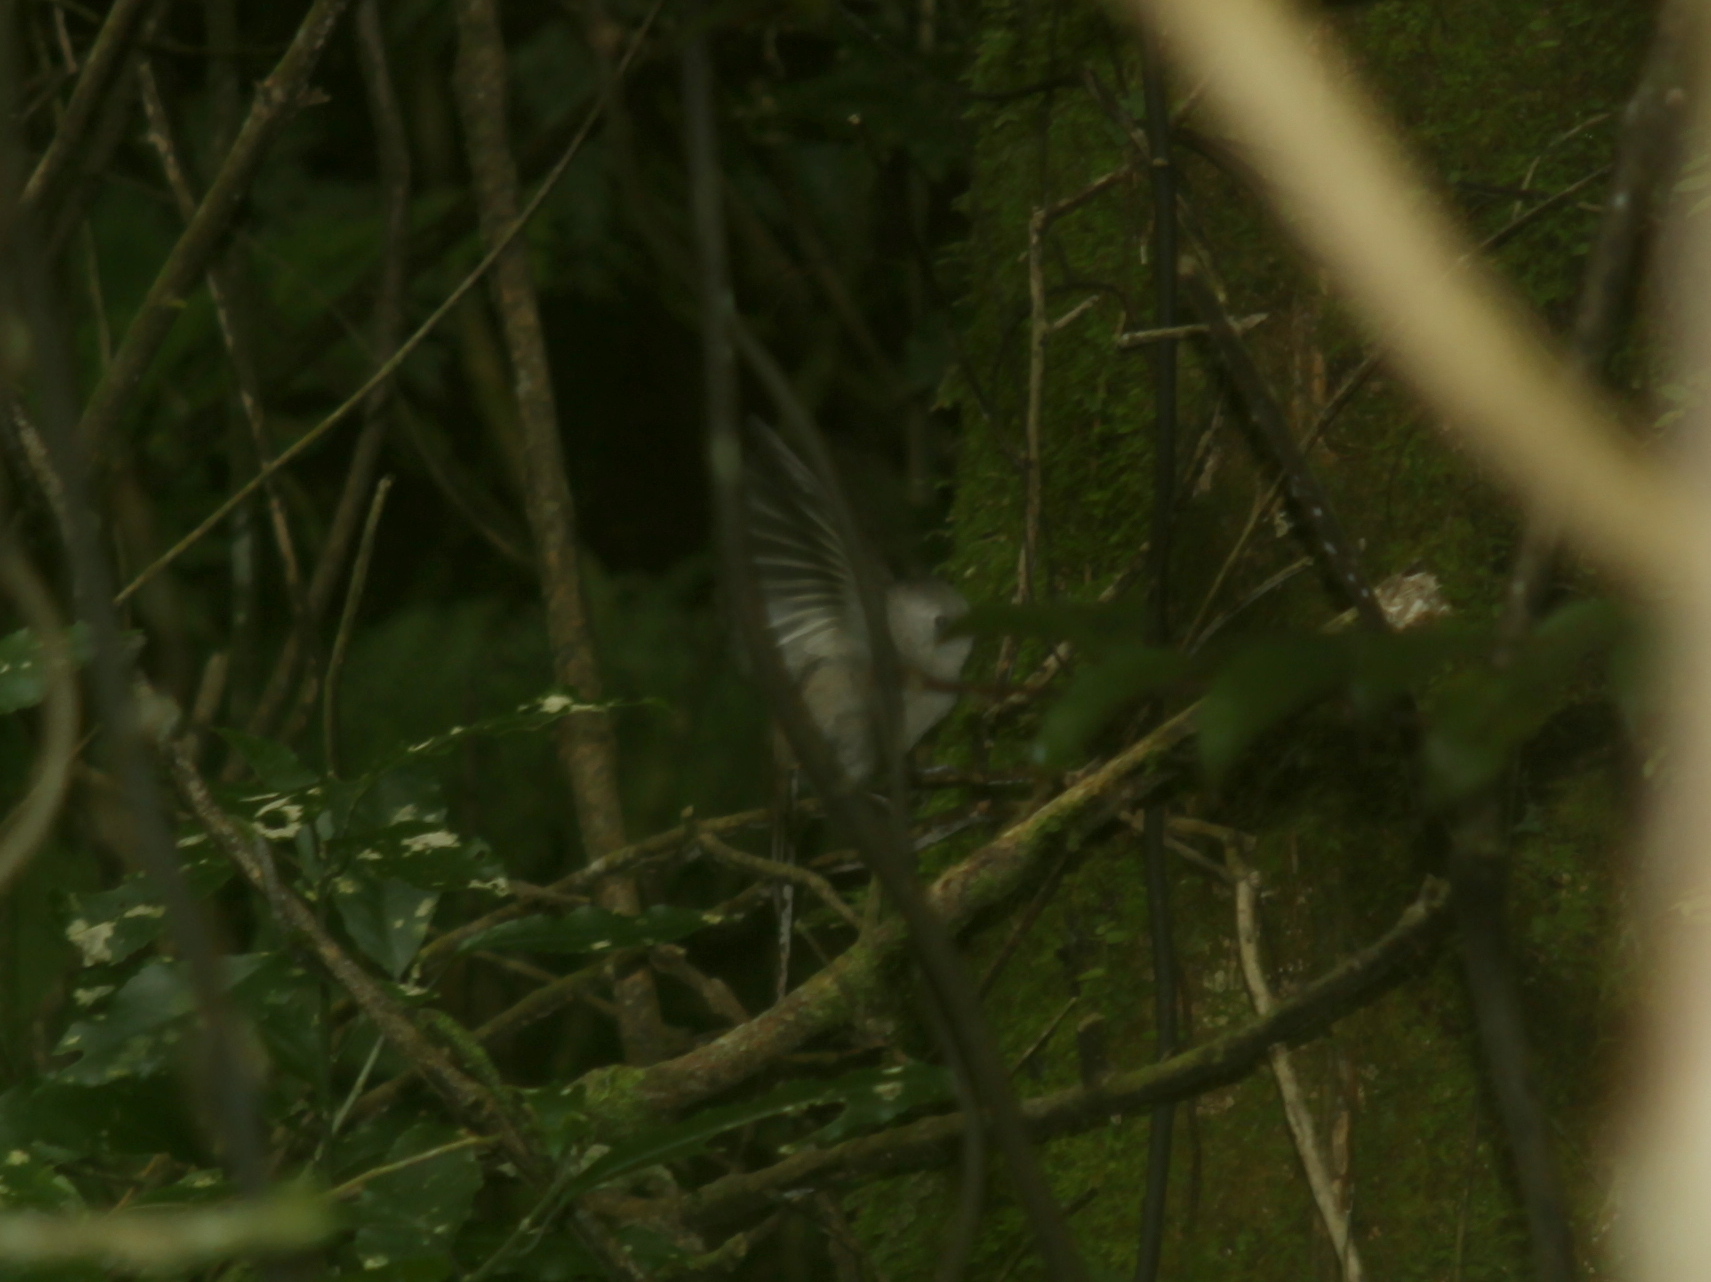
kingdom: Animalia
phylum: Chordata
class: Aves
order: Passeriformes
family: Acanthizidae
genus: Mohoua
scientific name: Mohoua albicilla
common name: Whitehead
